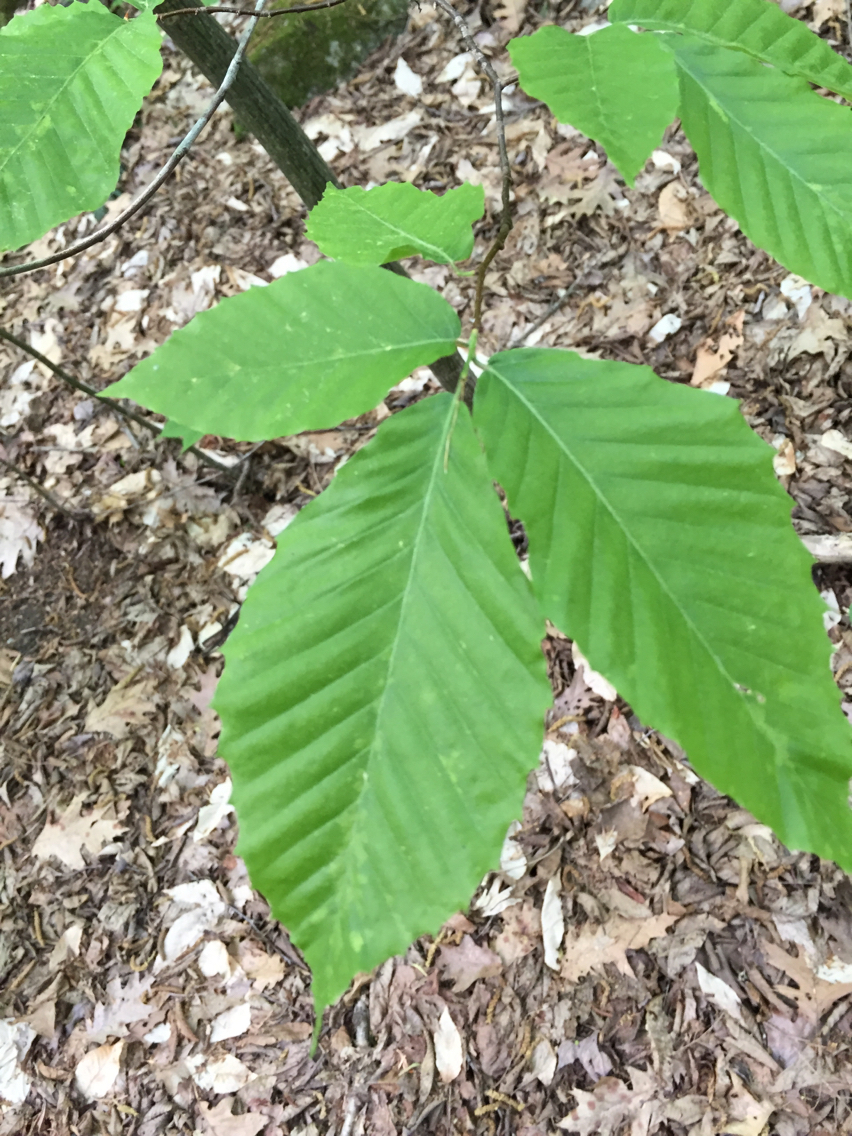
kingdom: Plantae
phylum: Tracheophyta
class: Magnoliopsida
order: Fagales
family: Fagaceae
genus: Fagus
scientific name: Fagus grandifolia
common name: American beech
